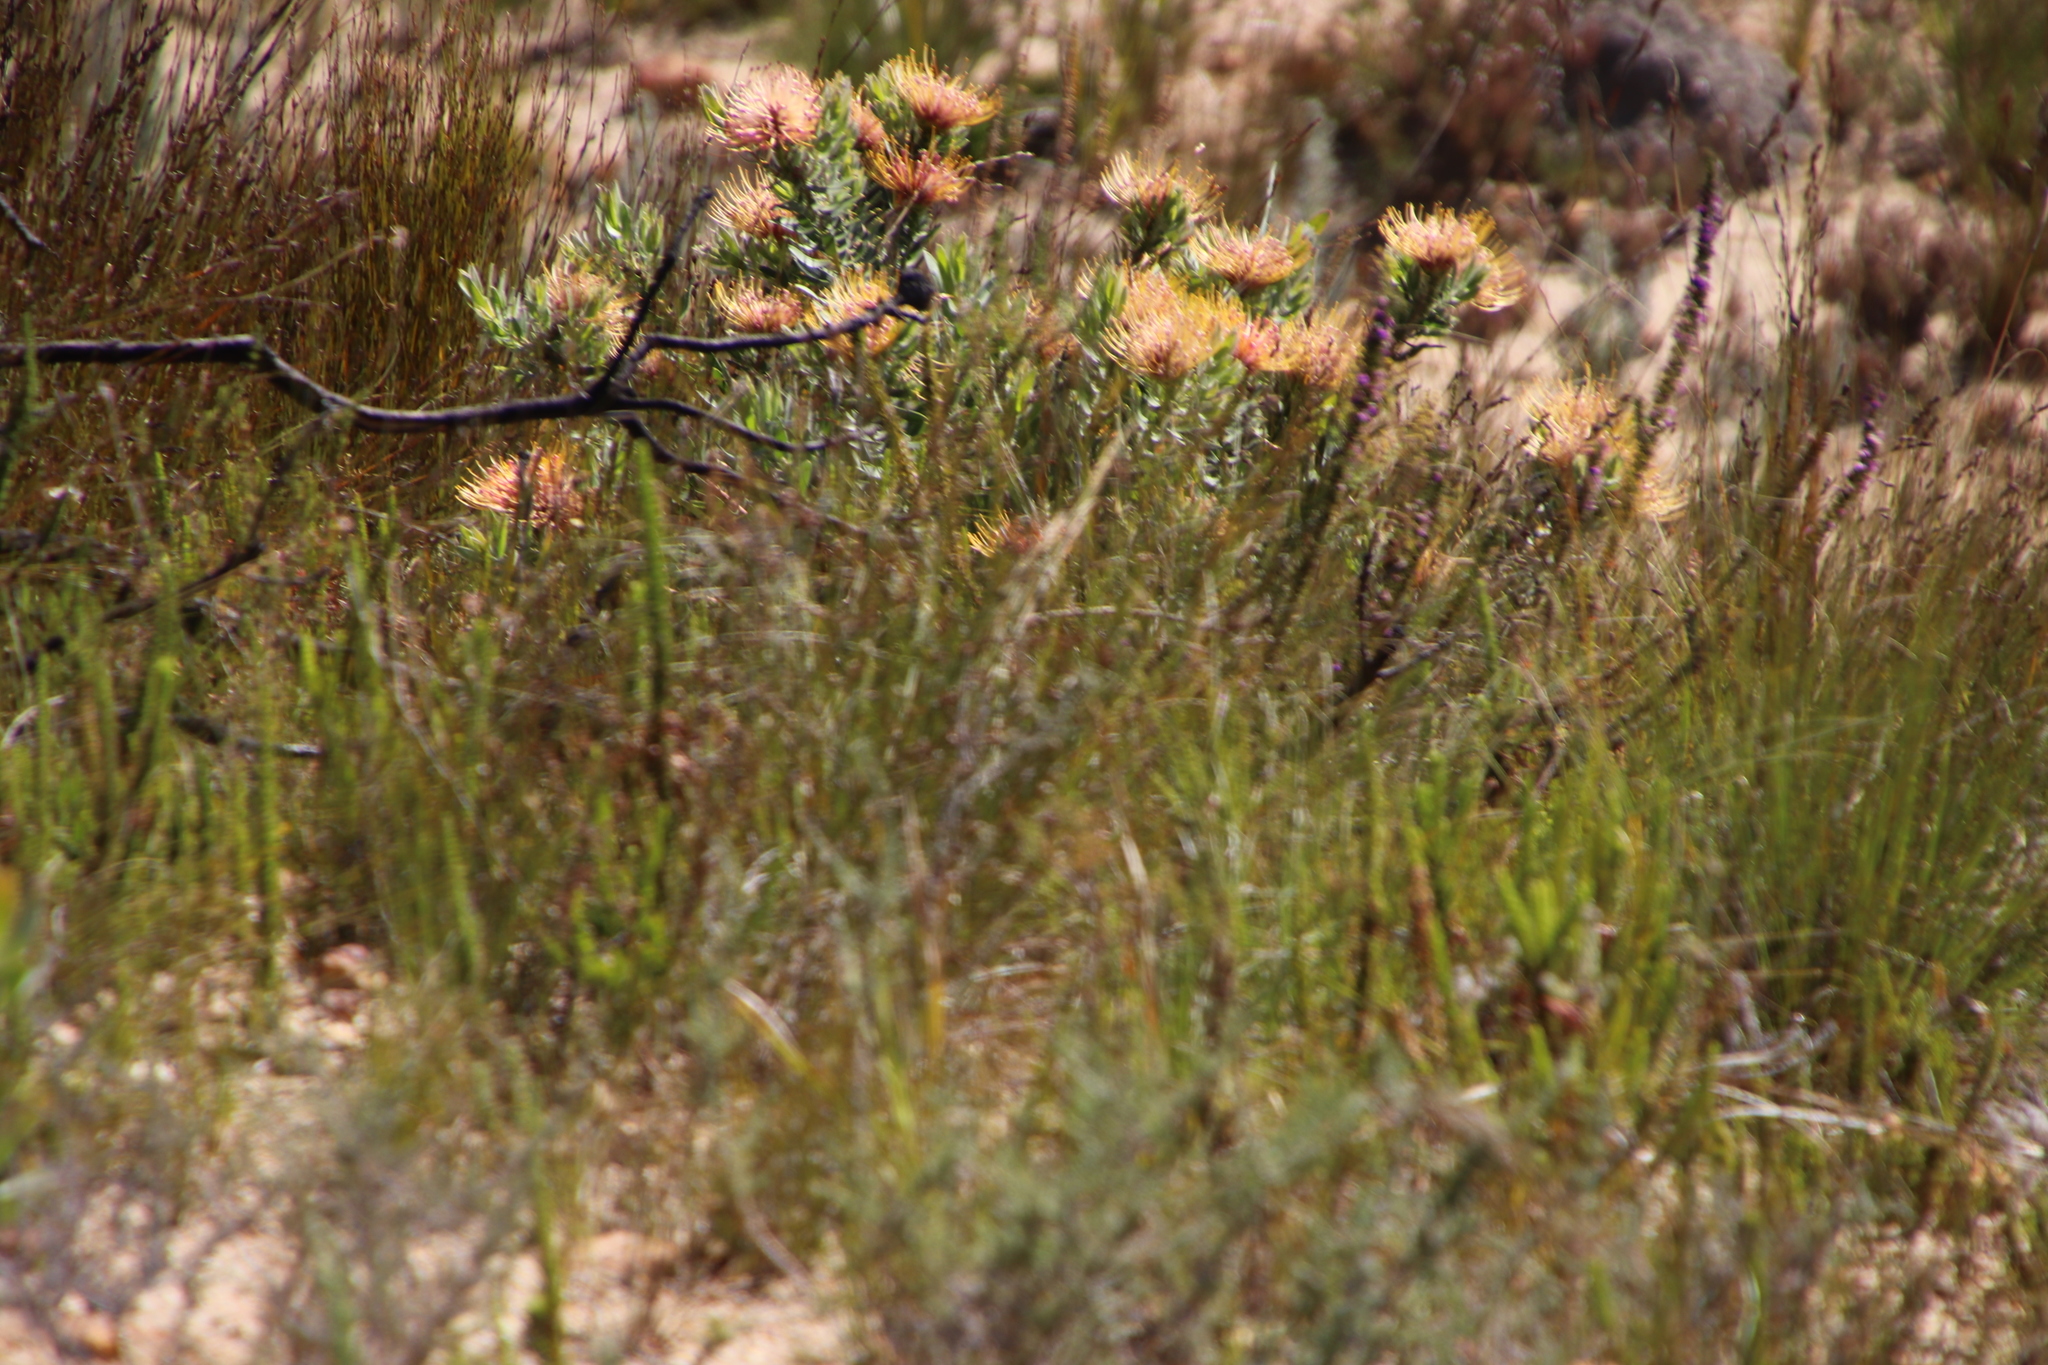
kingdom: Plantae
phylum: Tracheophyta
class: Magnoliopsida
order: Proteales
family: Proteaceae
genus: Leucospermum
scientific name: Leucospermum tottum
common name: Ribbon pincushion
